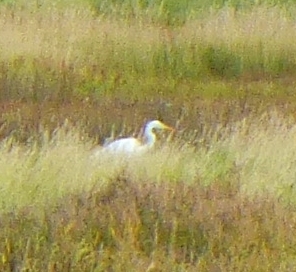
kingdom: Animalia
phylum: Chordata
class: Aves
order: Pelecaniformes
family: Ardeidae
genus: Ardea
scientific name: Ardea alba
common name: Great egret
